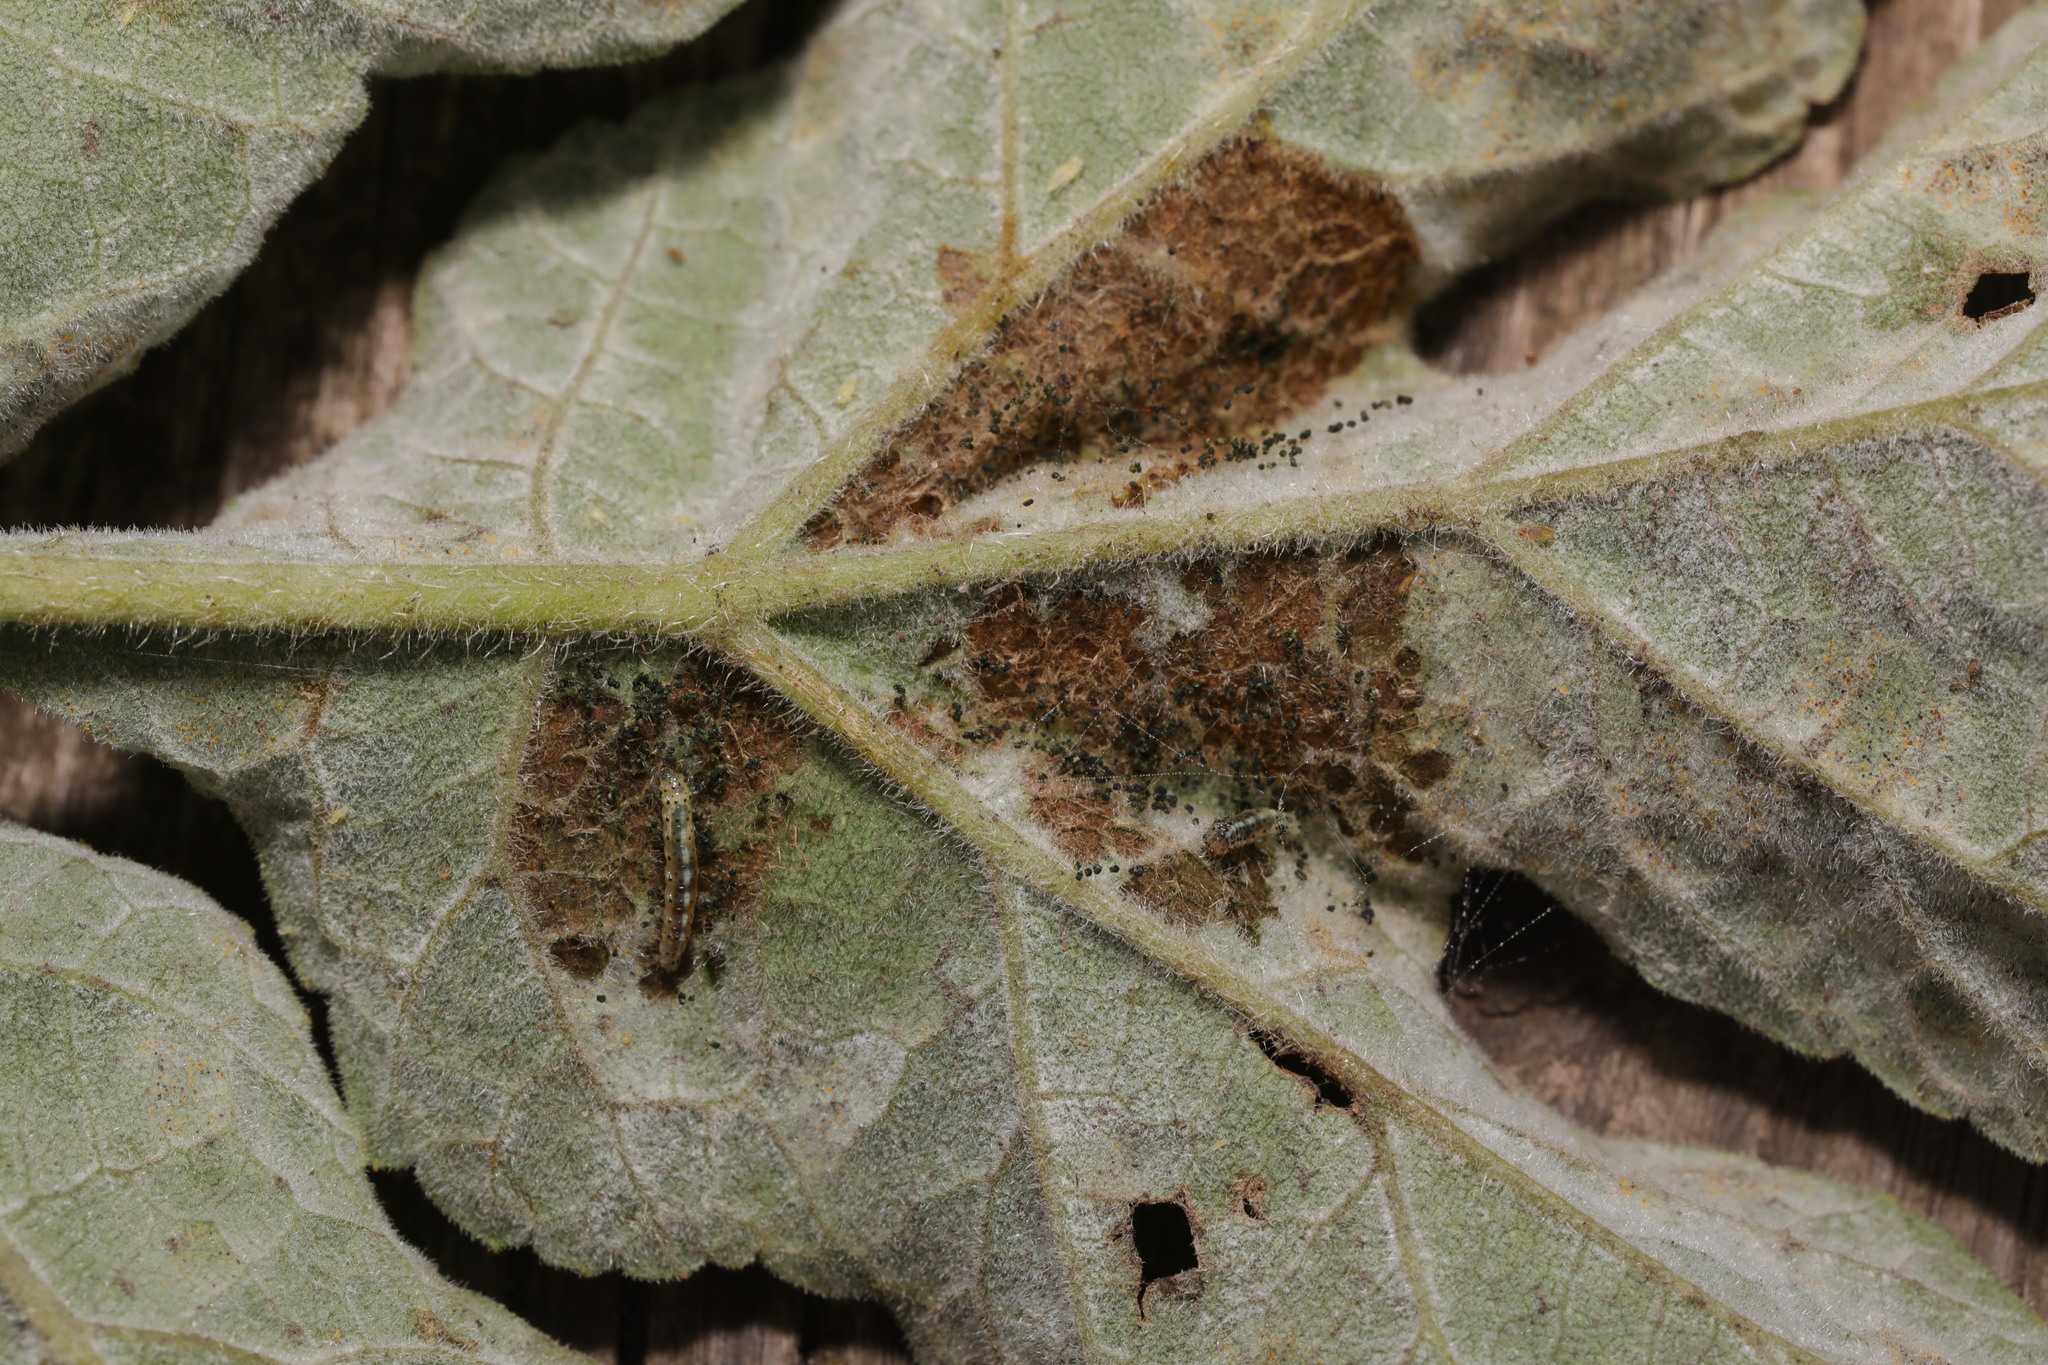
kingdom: Animalia
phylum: Arthropoda
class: Insecta
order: Lepidoptera
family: Epermeniidae
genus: Epermenia
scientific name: Epermenia chaerophyllellus
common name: Garden lance-wing
